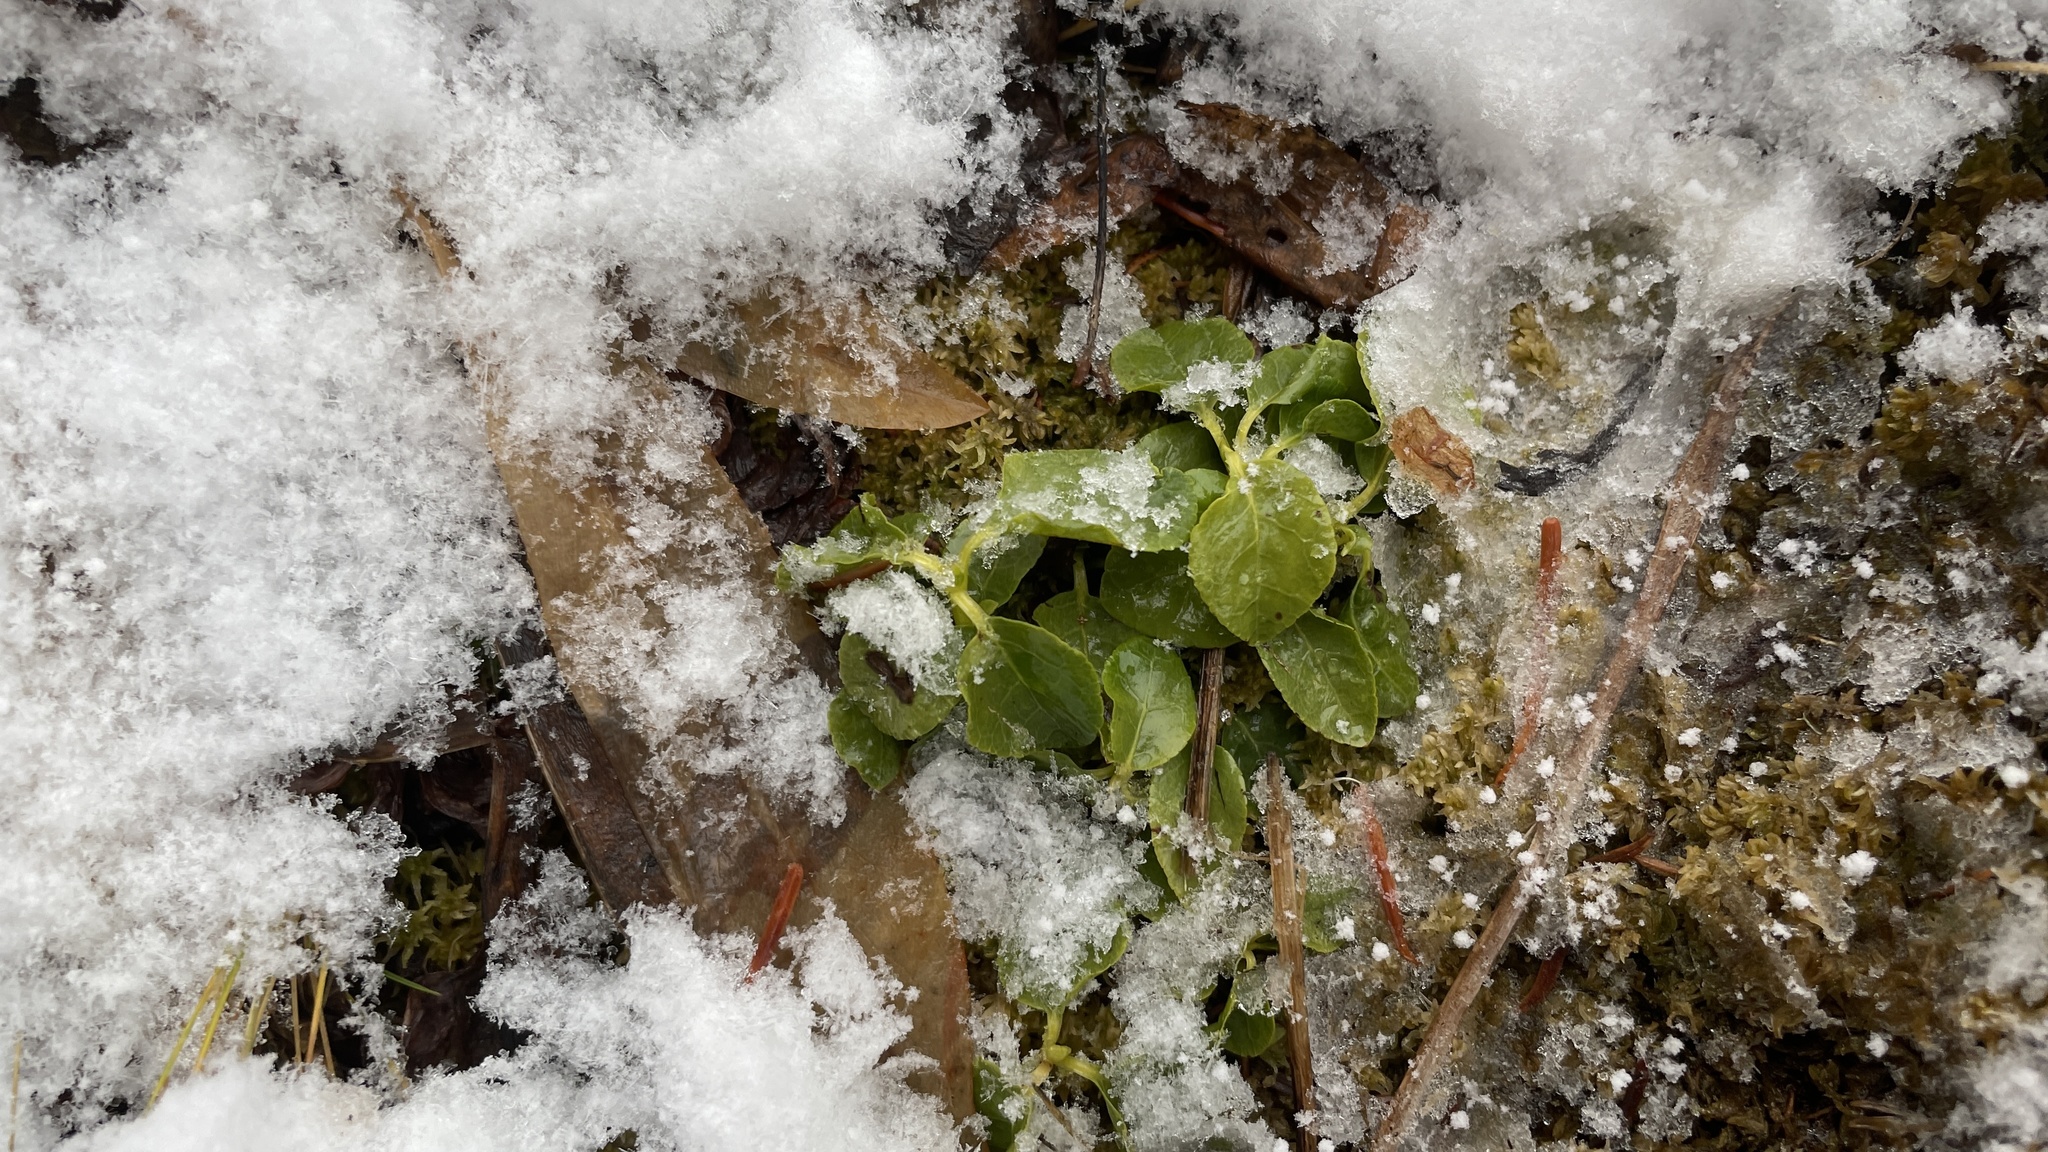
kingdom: Plantae
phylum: Tracheophyta
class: Magnoliopsida
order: Ericales
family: Ericaceae
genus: Orthilia
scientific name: Orthilia secunda
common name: One-sided orthilia
